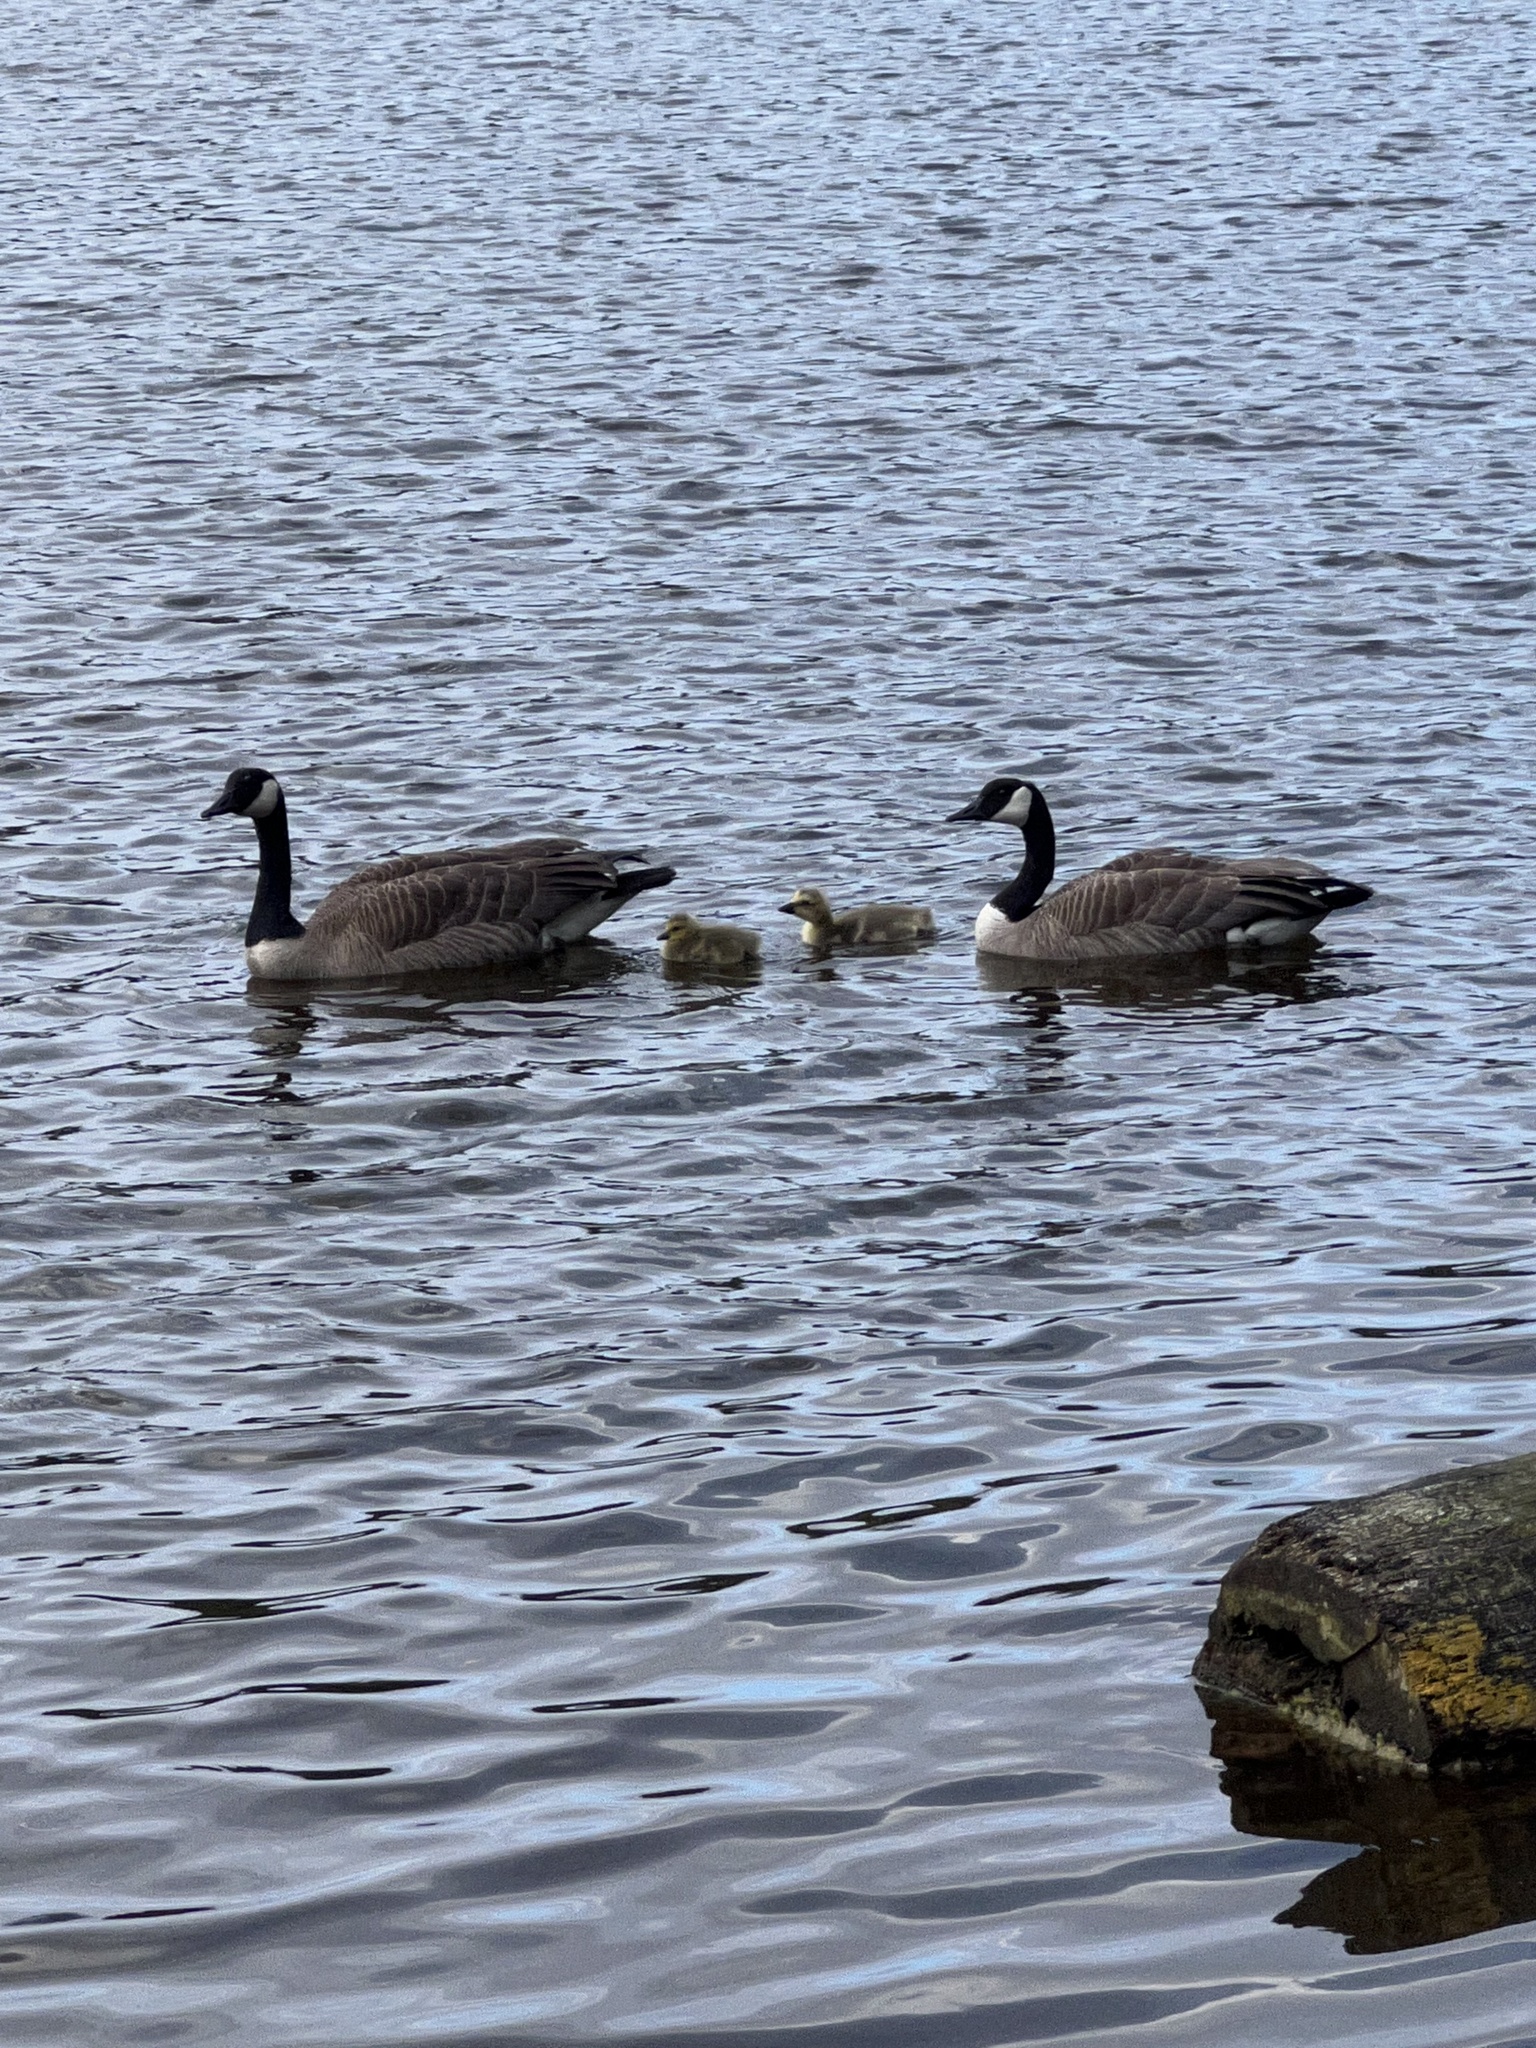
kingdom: Animalia
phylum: Chordata
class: Aves
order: Anseriformes
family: Anatidae
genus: Branta
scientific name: Branta canadensis
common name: Canada goose
